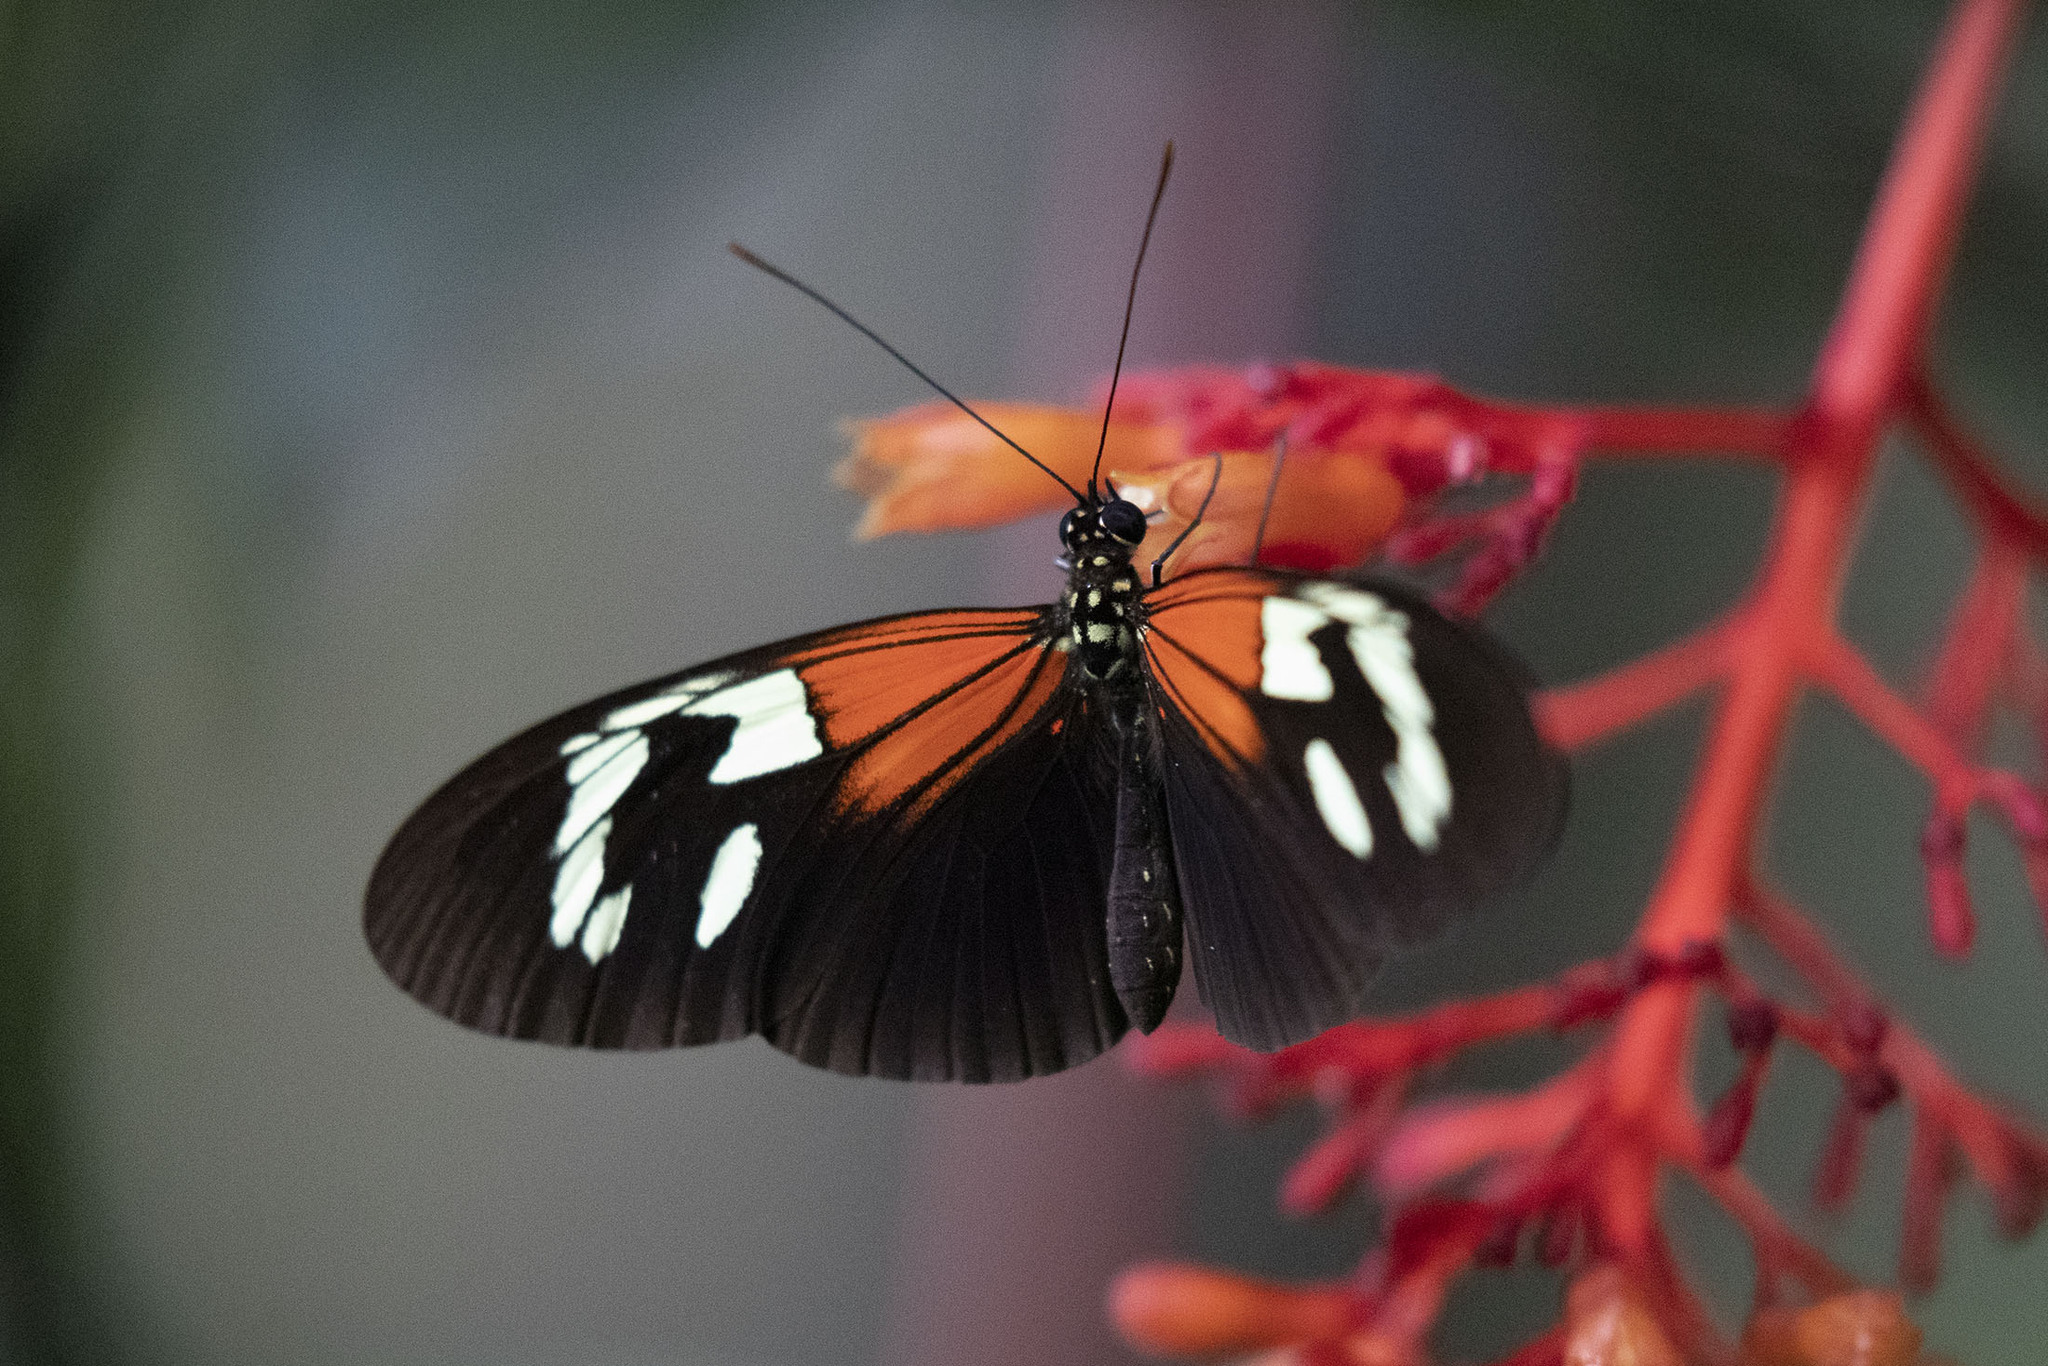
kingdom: Animalia
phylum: Arthropoda
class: Insecta
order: Lepidoptera
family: Nymphalidae
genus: Heliconius
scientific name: Heliconius erato
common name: Common patch longwing
